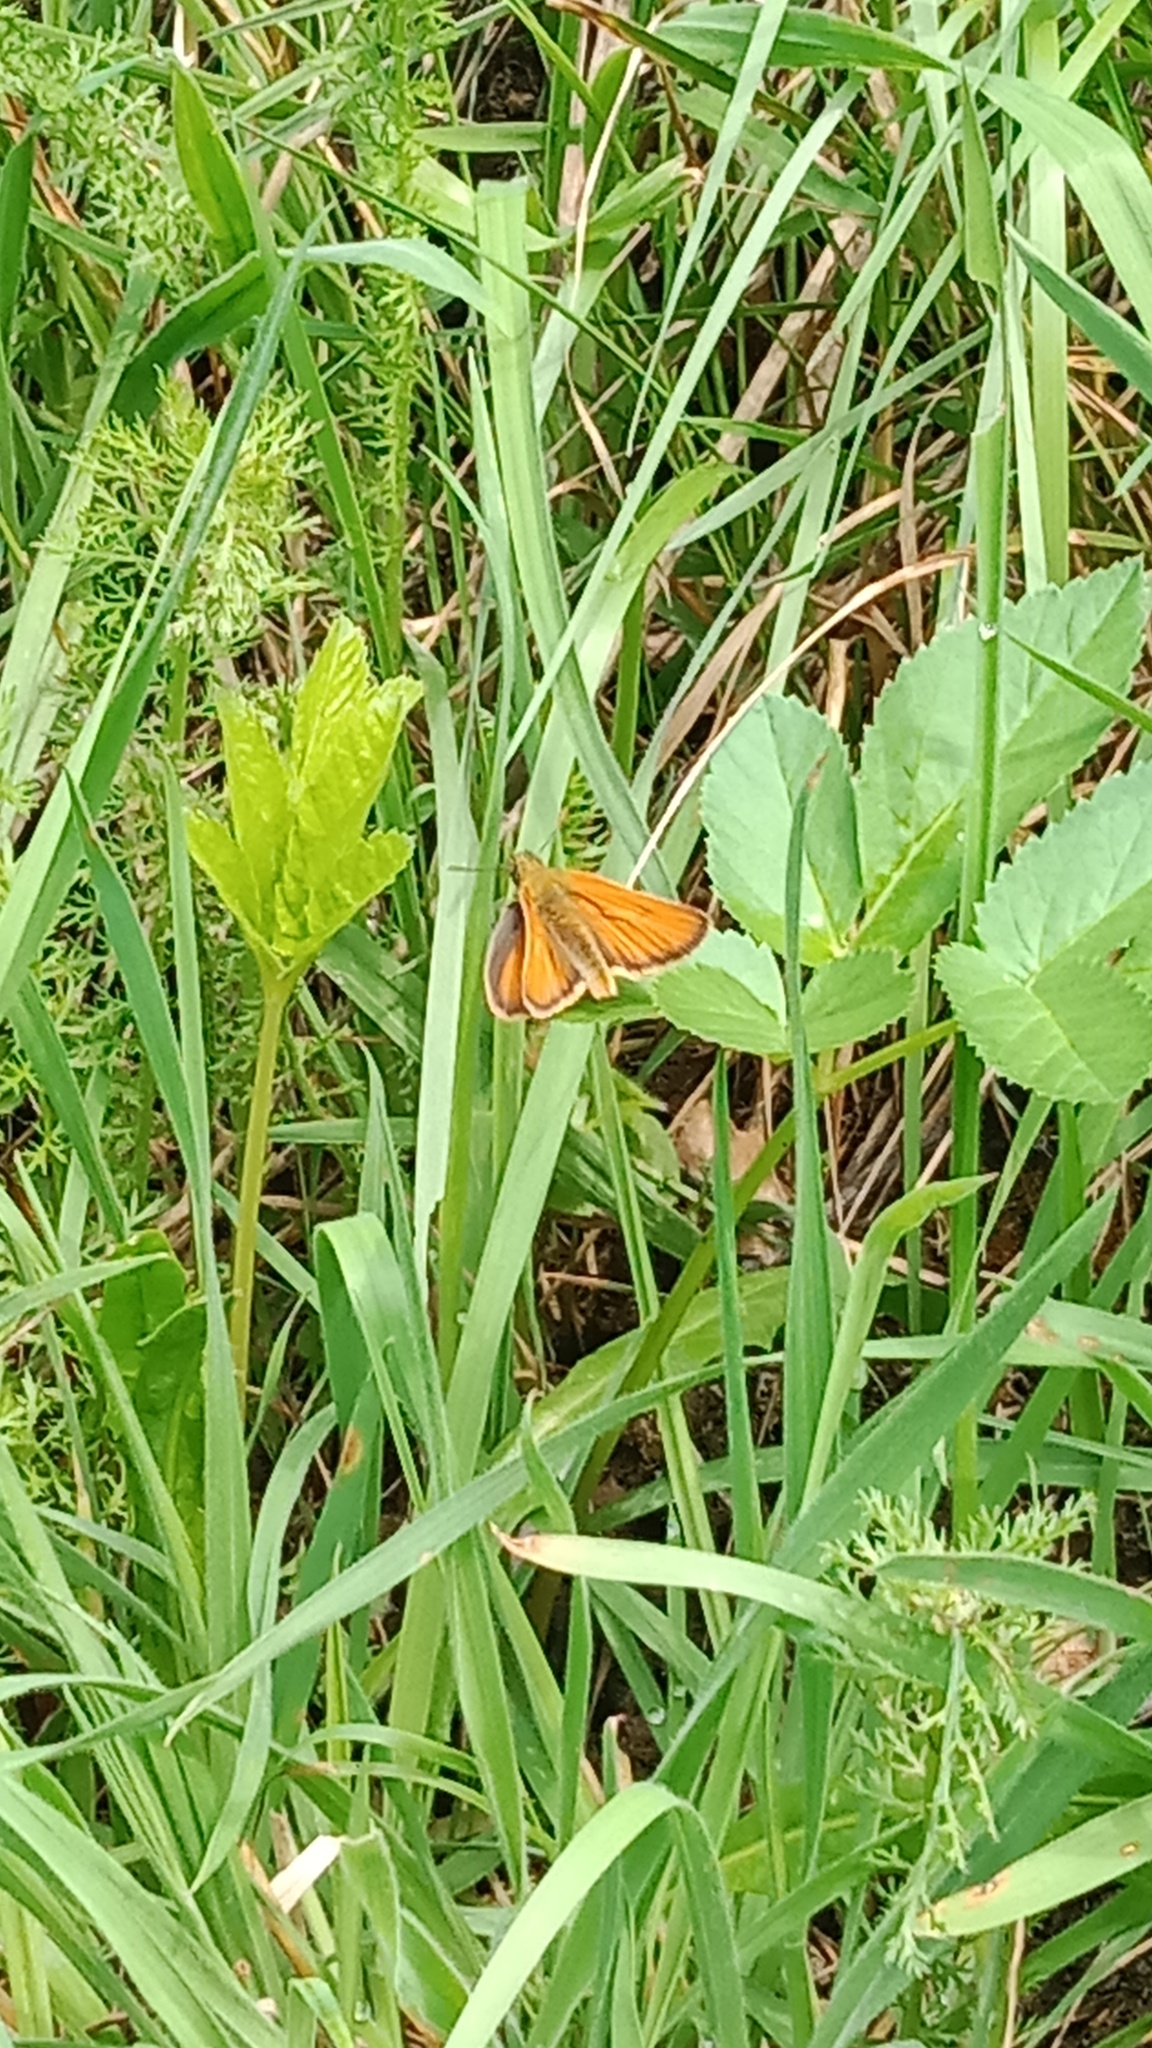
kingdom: Animalia
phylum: Arthropoda
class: Insecta
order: Lepidoptera
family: Hesperiidae
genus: Thymelicus
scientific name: Thymelicus sylvestris
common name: Small skipper
